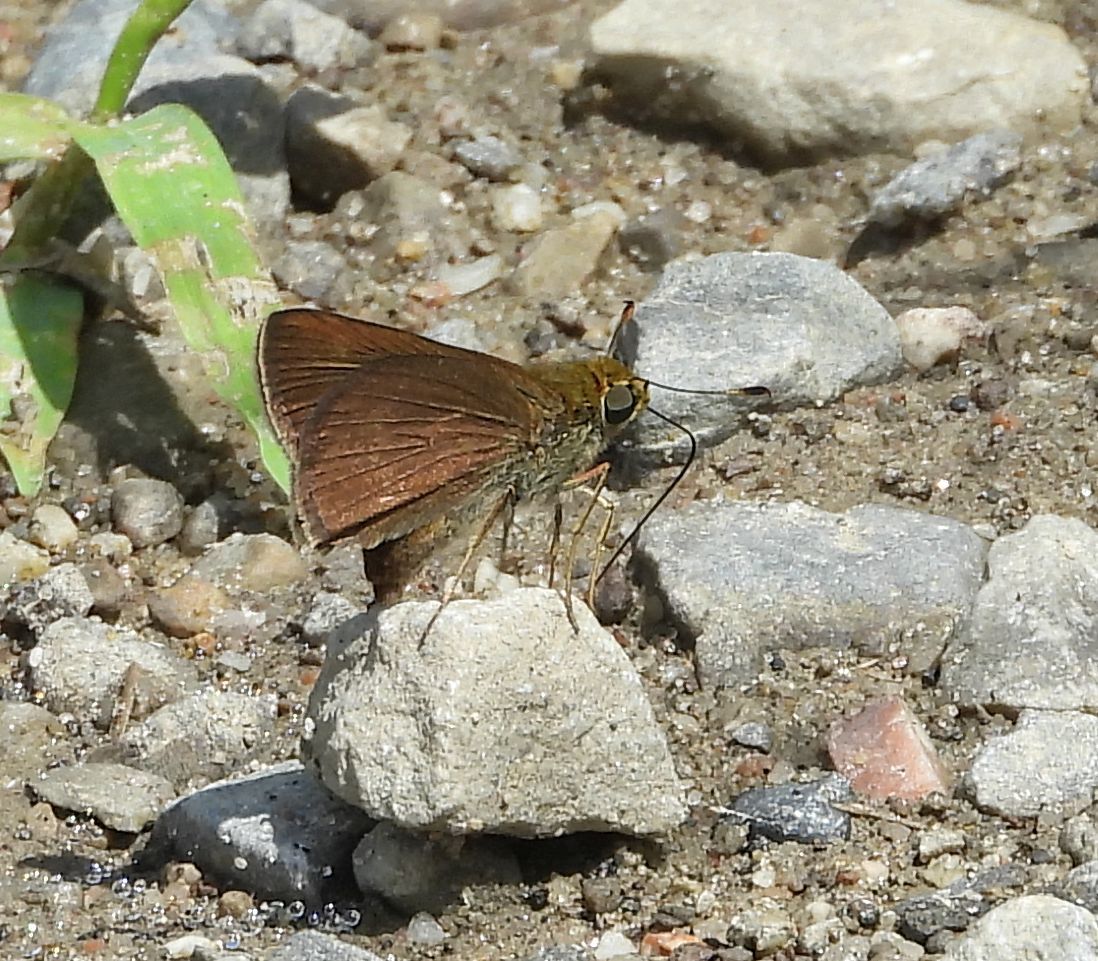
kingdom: Animalia
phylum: Arthropoda
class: Insecta
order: Lepidoptera
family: Hesperiidae
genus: Euphyes
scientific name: Euphyes vestris
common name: Dun skipper
